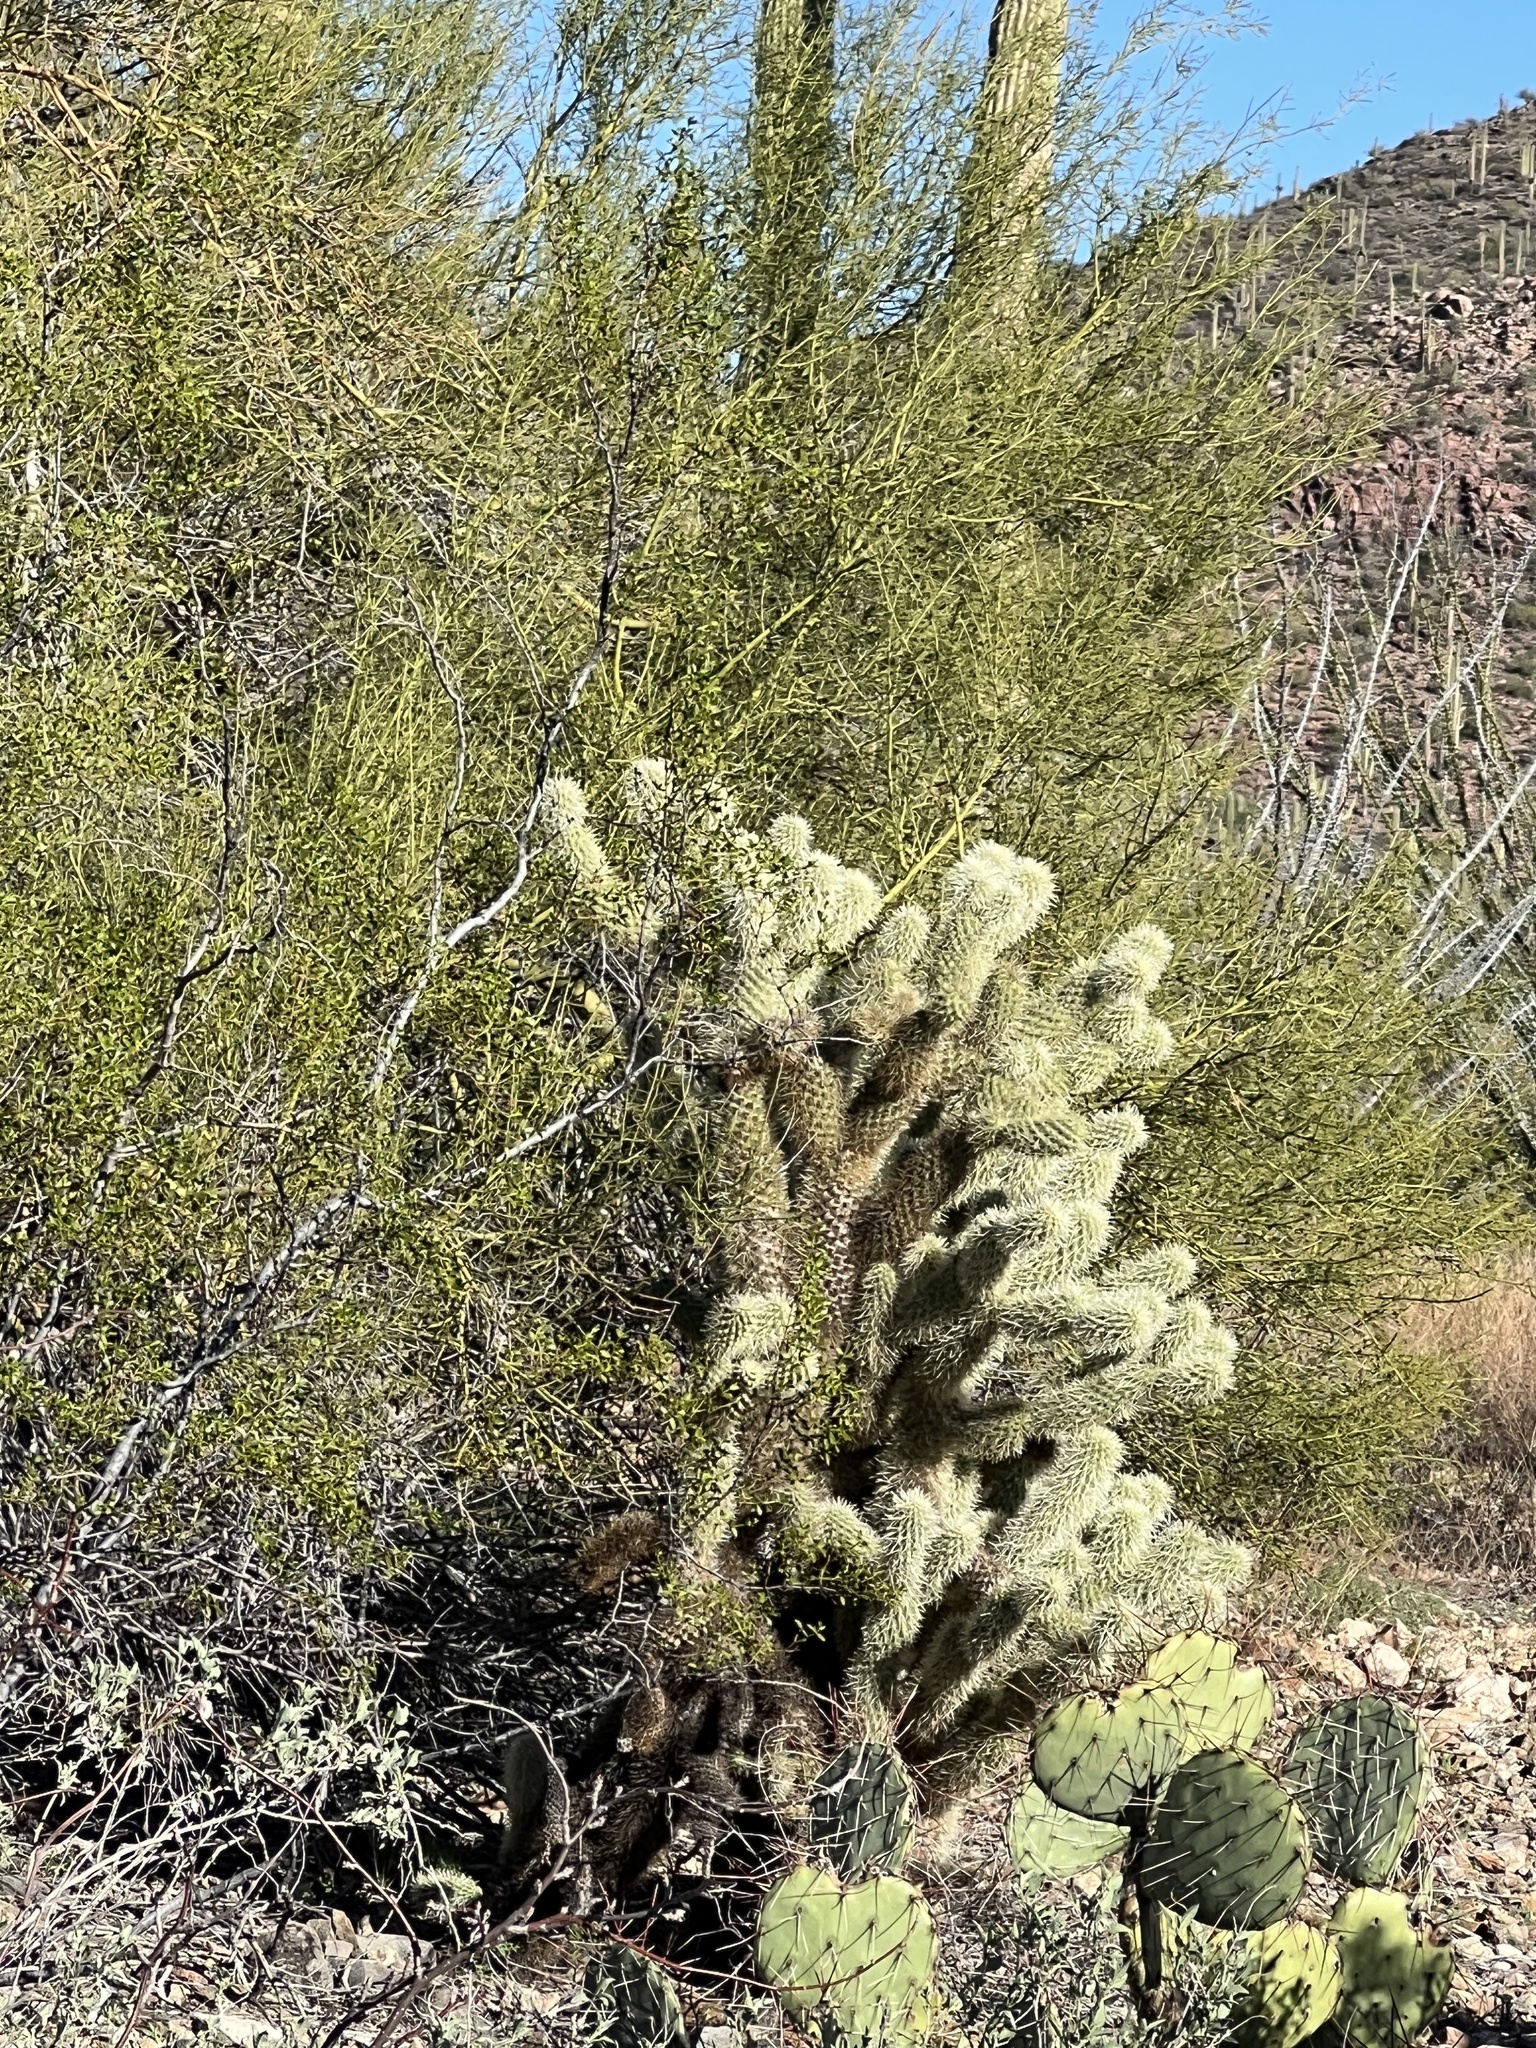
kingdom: Plantae
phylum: Tracheophyta
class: Magnoliopsida
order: Caryophyllales
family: Cactaceae
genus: Cylindropuntia
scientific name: Cylindropuntia fosbergii
